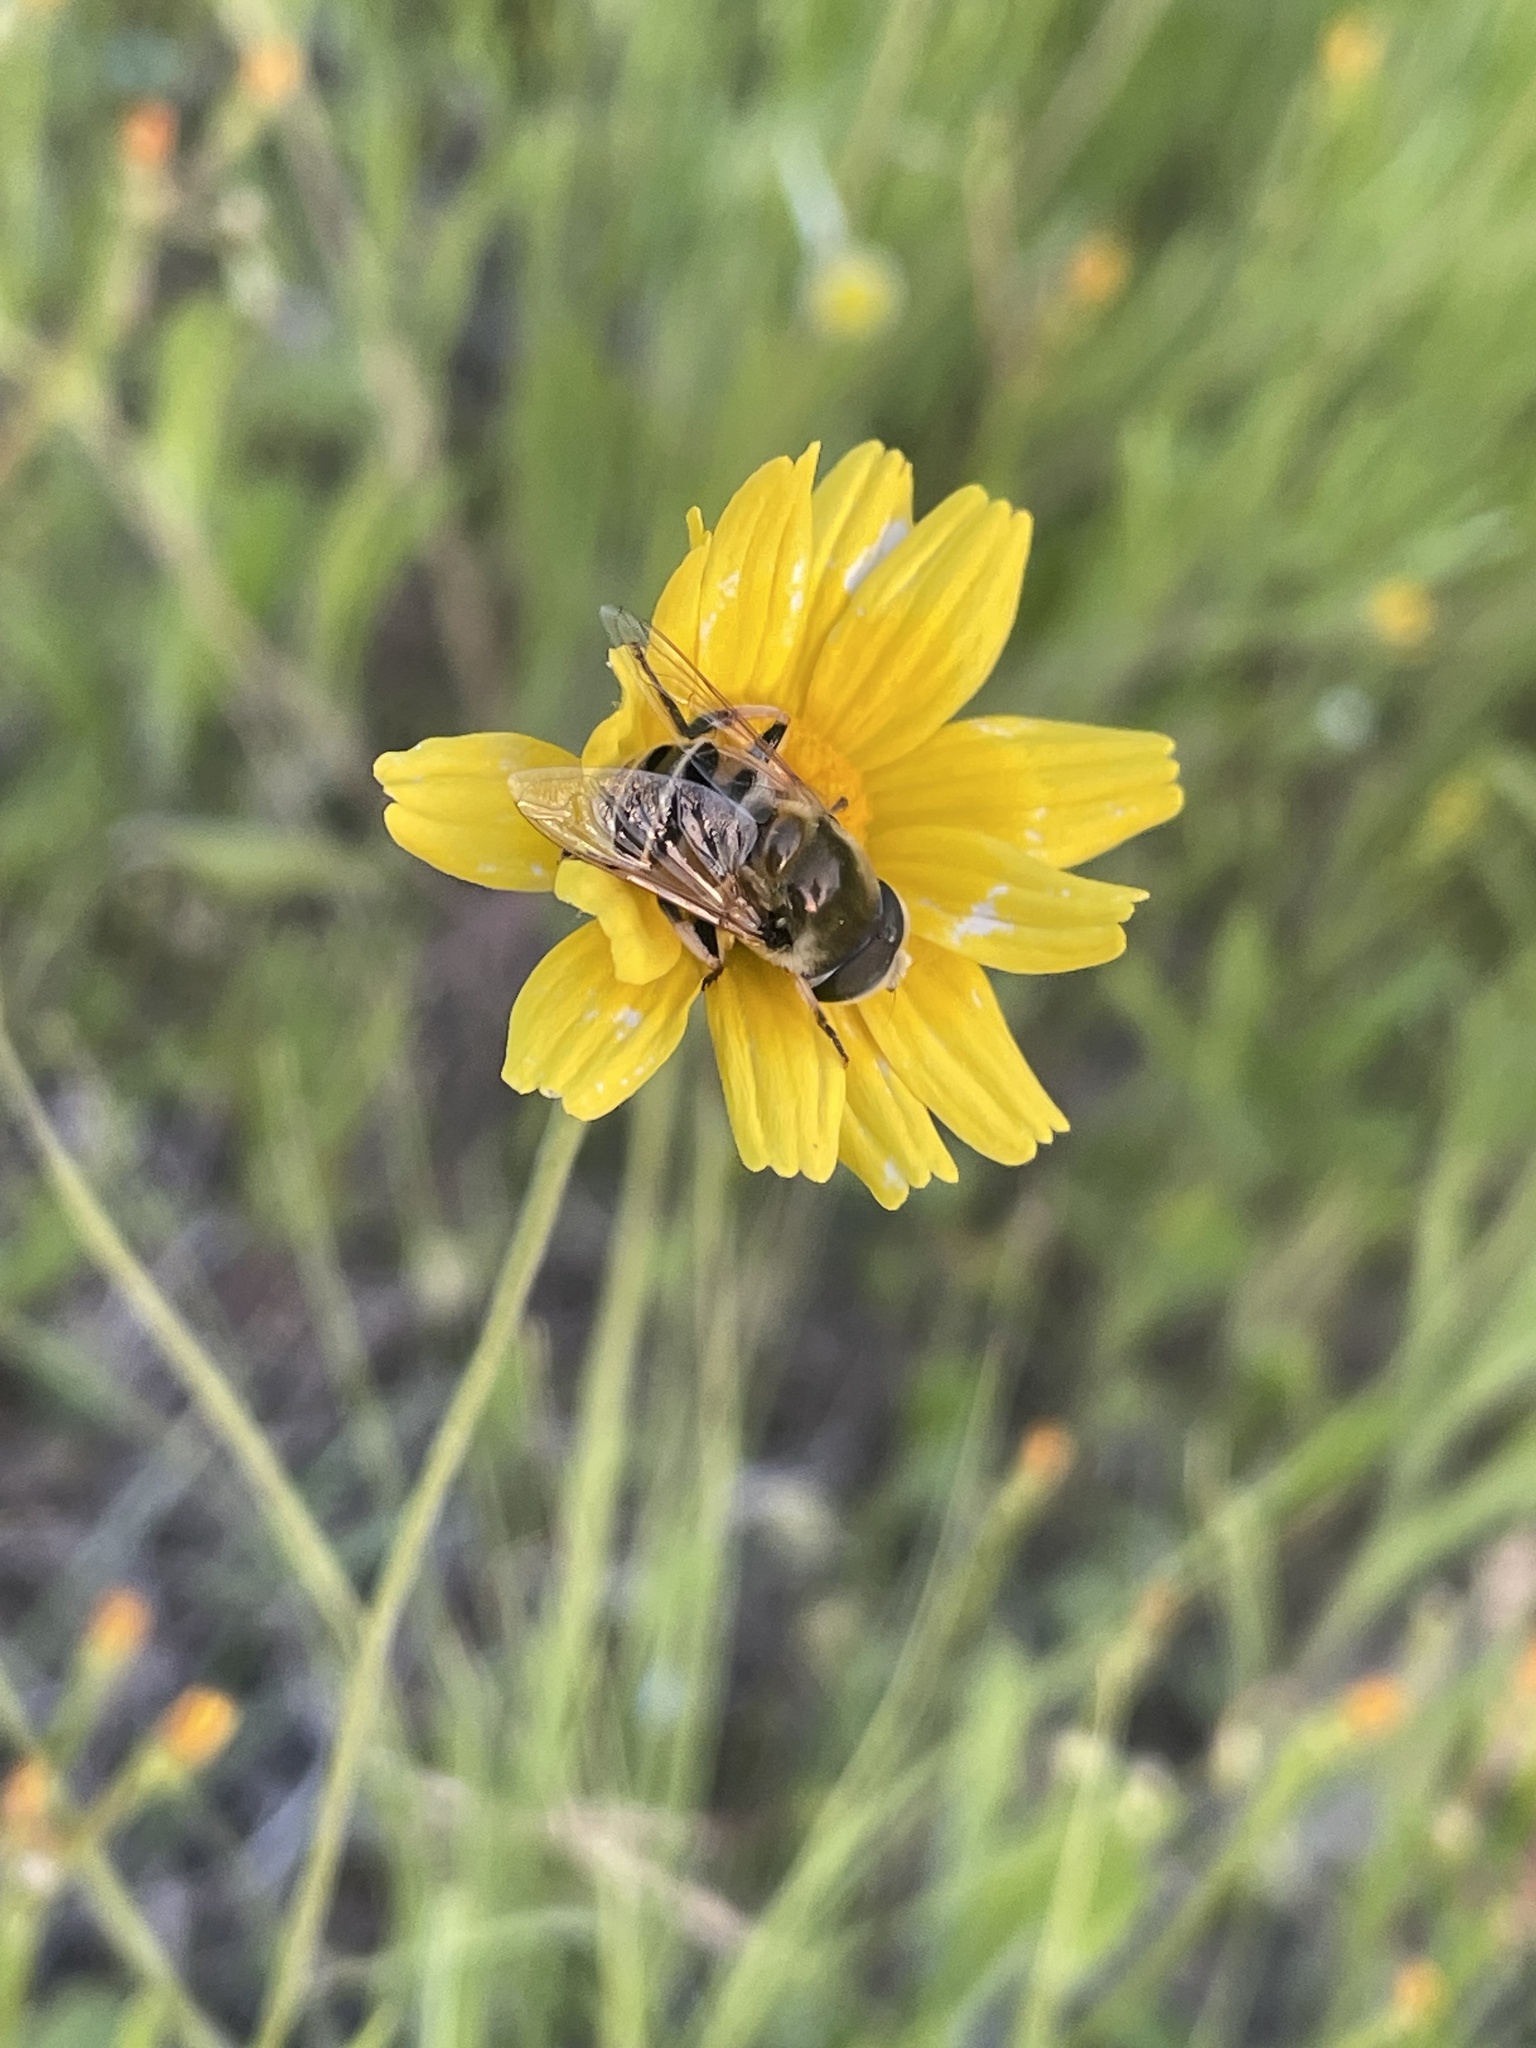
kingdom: Animalia
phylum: Arthropoda
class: Insecta
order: Diptera
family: Syrphidae
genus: Eristalis
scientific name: Eristalis stipator
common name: Yellow-shouldered drone fly
